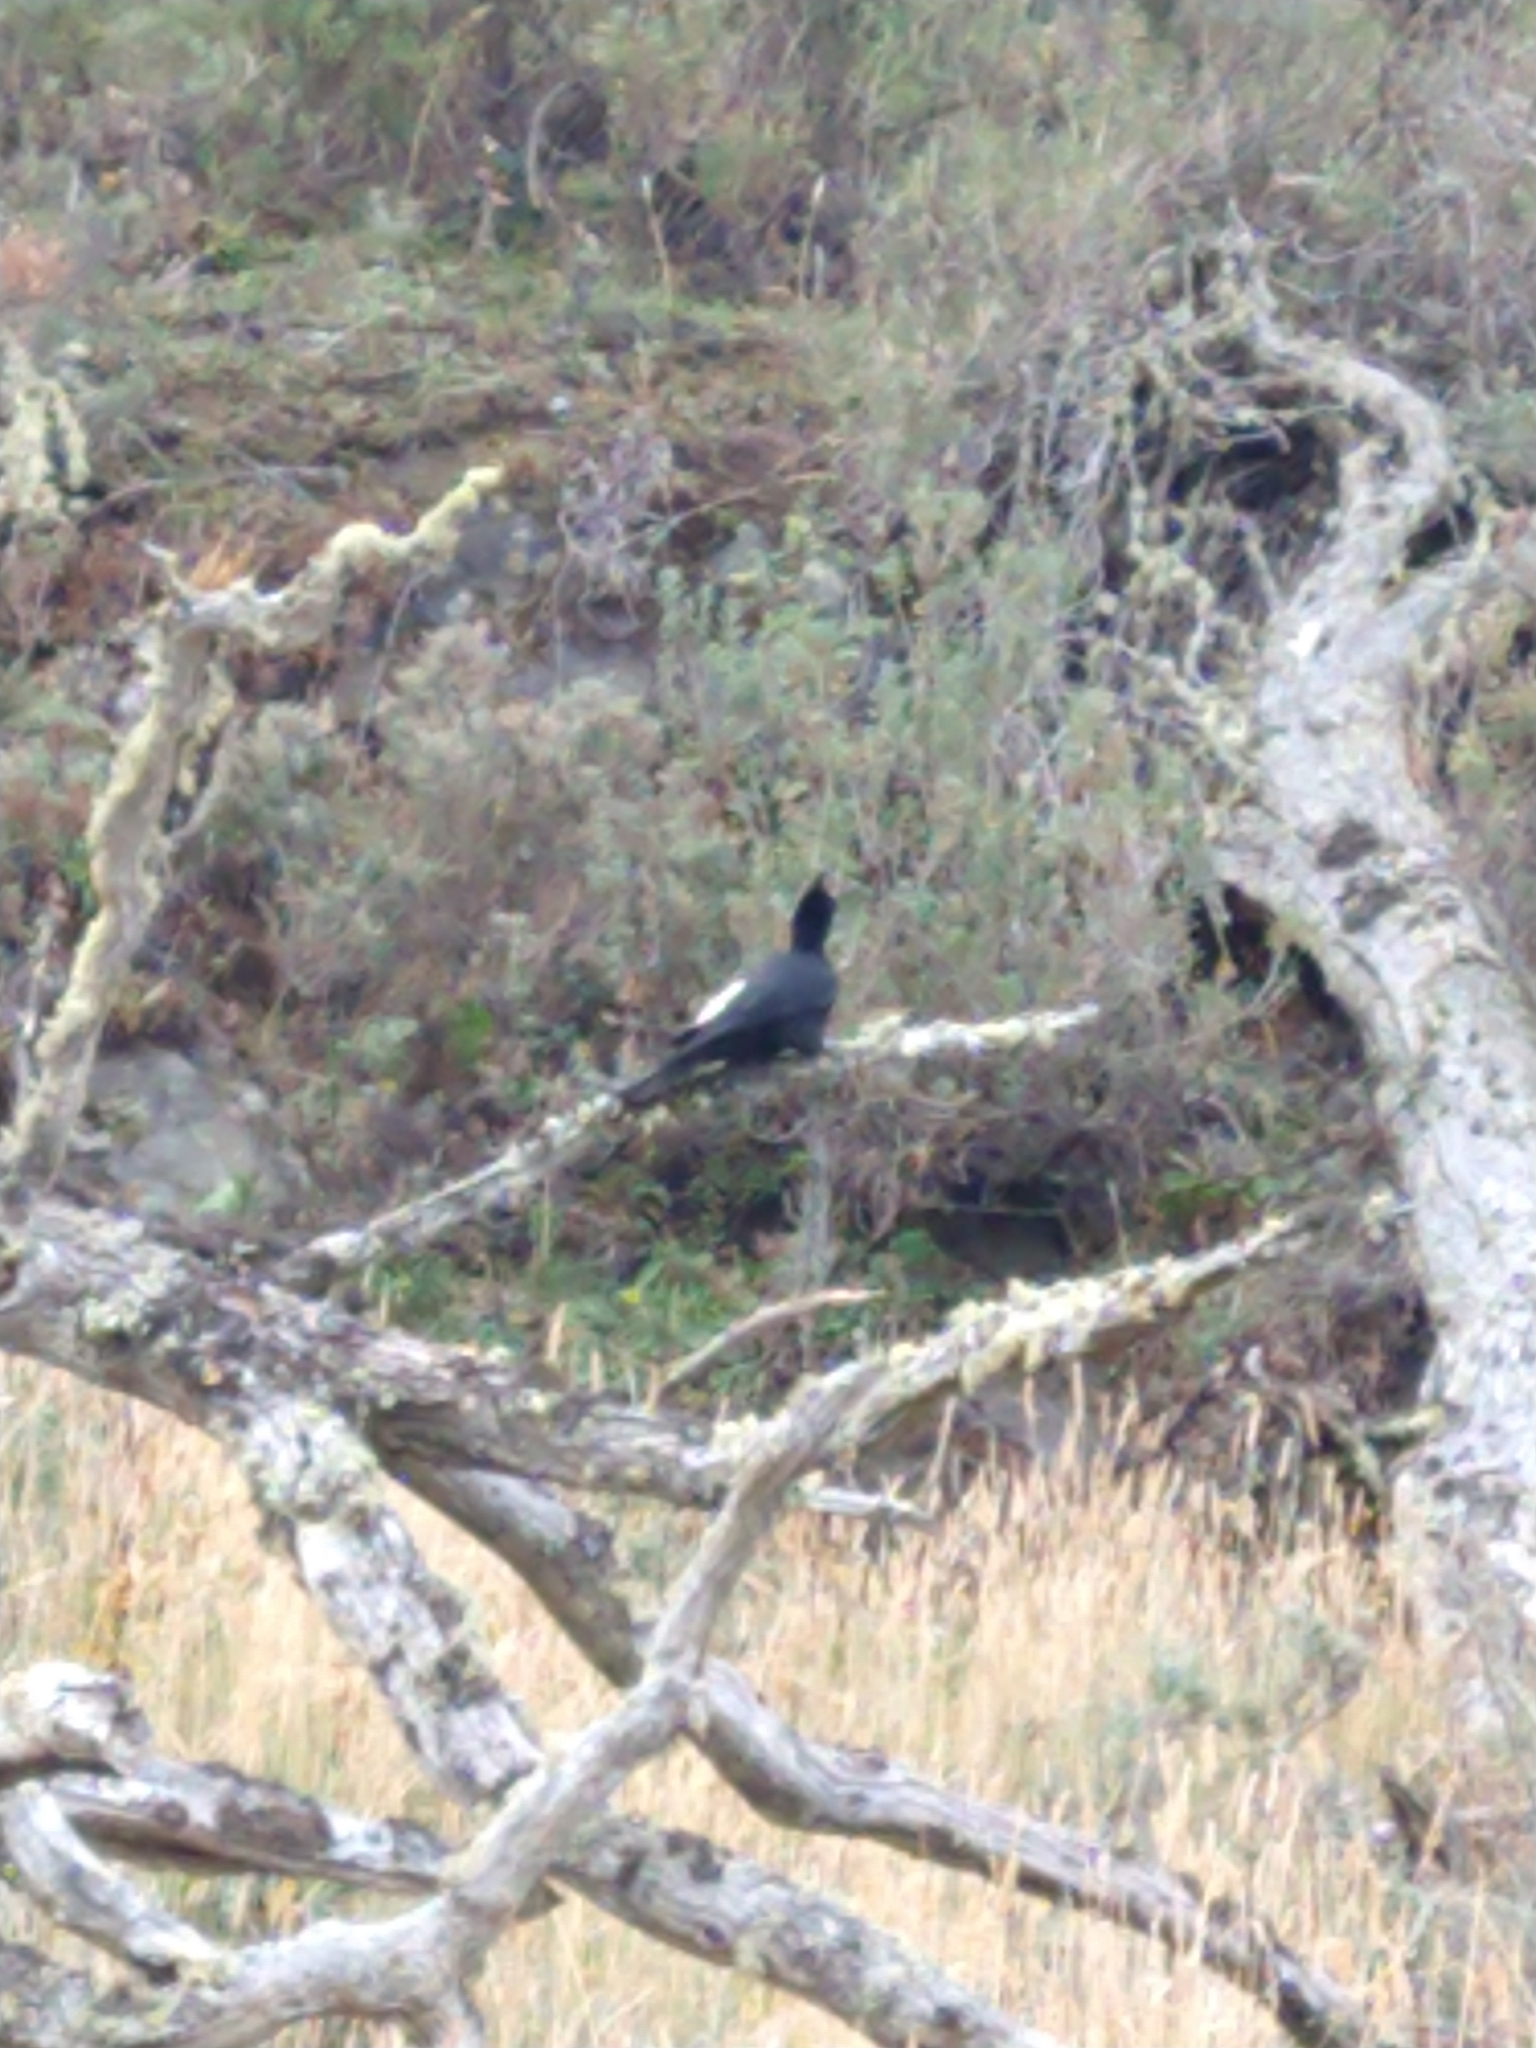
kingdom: Animalia
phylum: Chordata
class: Aves
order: Piciformes
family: Picidae
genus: Campephilus
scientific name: Campephilus magellanicus
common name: Magellanic woodpecker
